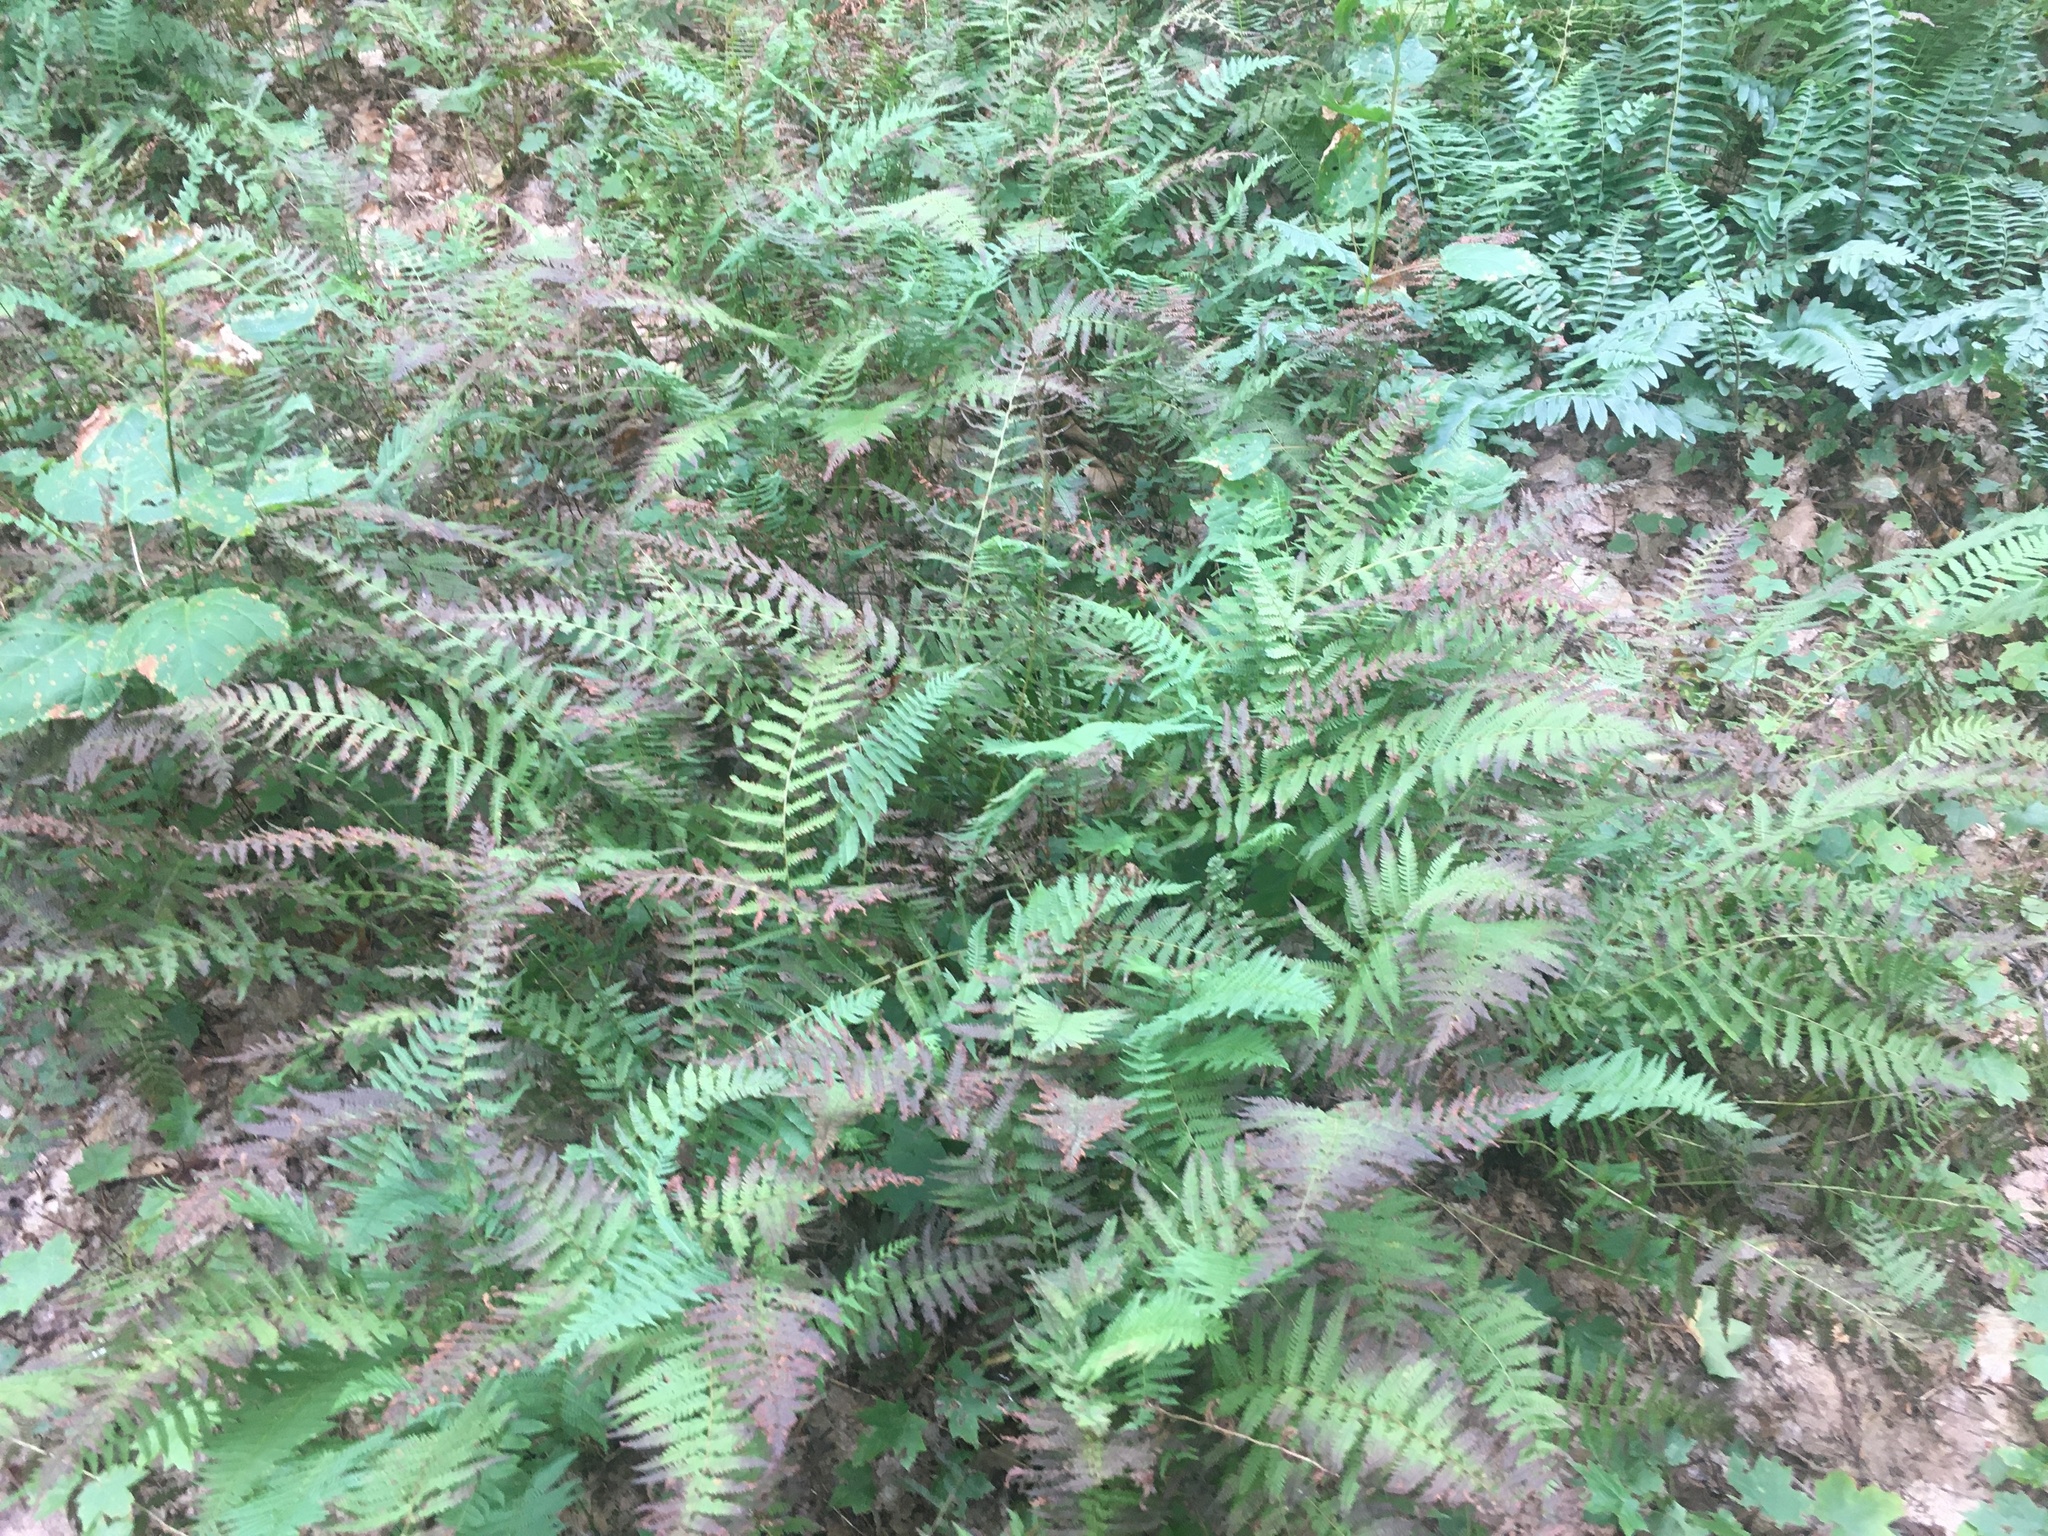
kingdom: Plantae
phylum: Tracheophyta
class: Polypodiopsida
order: Polypodiales
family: Thelypteridaceae
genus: Amauropelta
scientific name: Amauropelta noveboracensis
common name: New york fern
